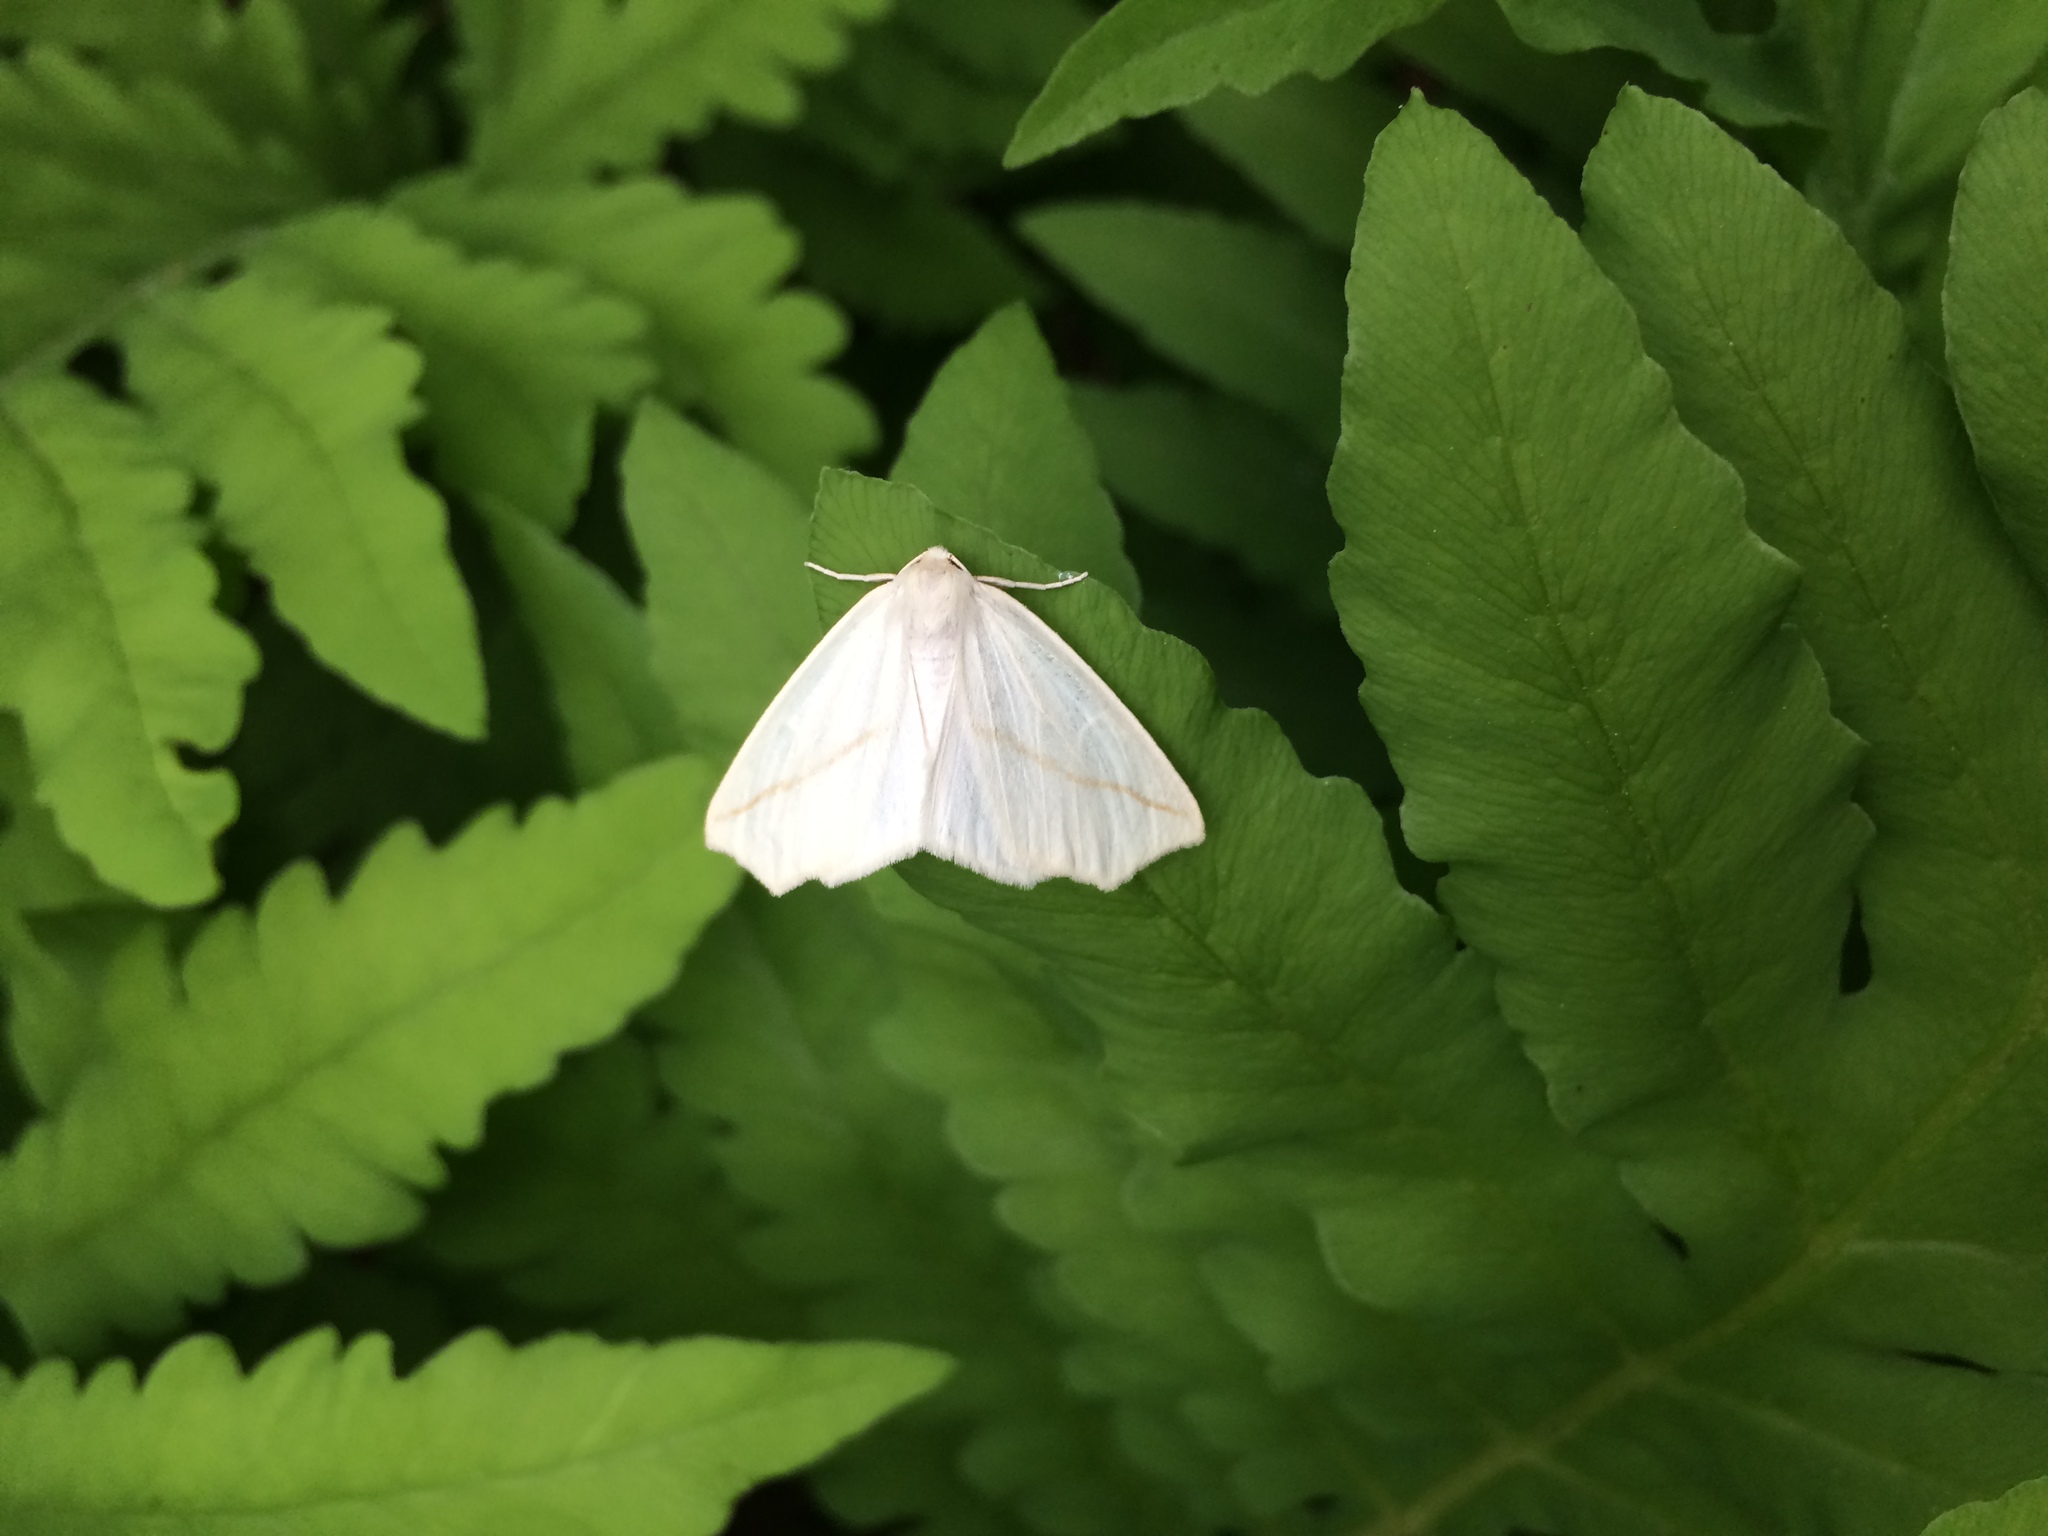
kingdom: Animalia
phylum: Arthropoda
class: Insecta
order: Lepidoptera
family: Geometridae
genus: Tetracis
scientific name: Tetracis cachexiata
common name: White slant-line
